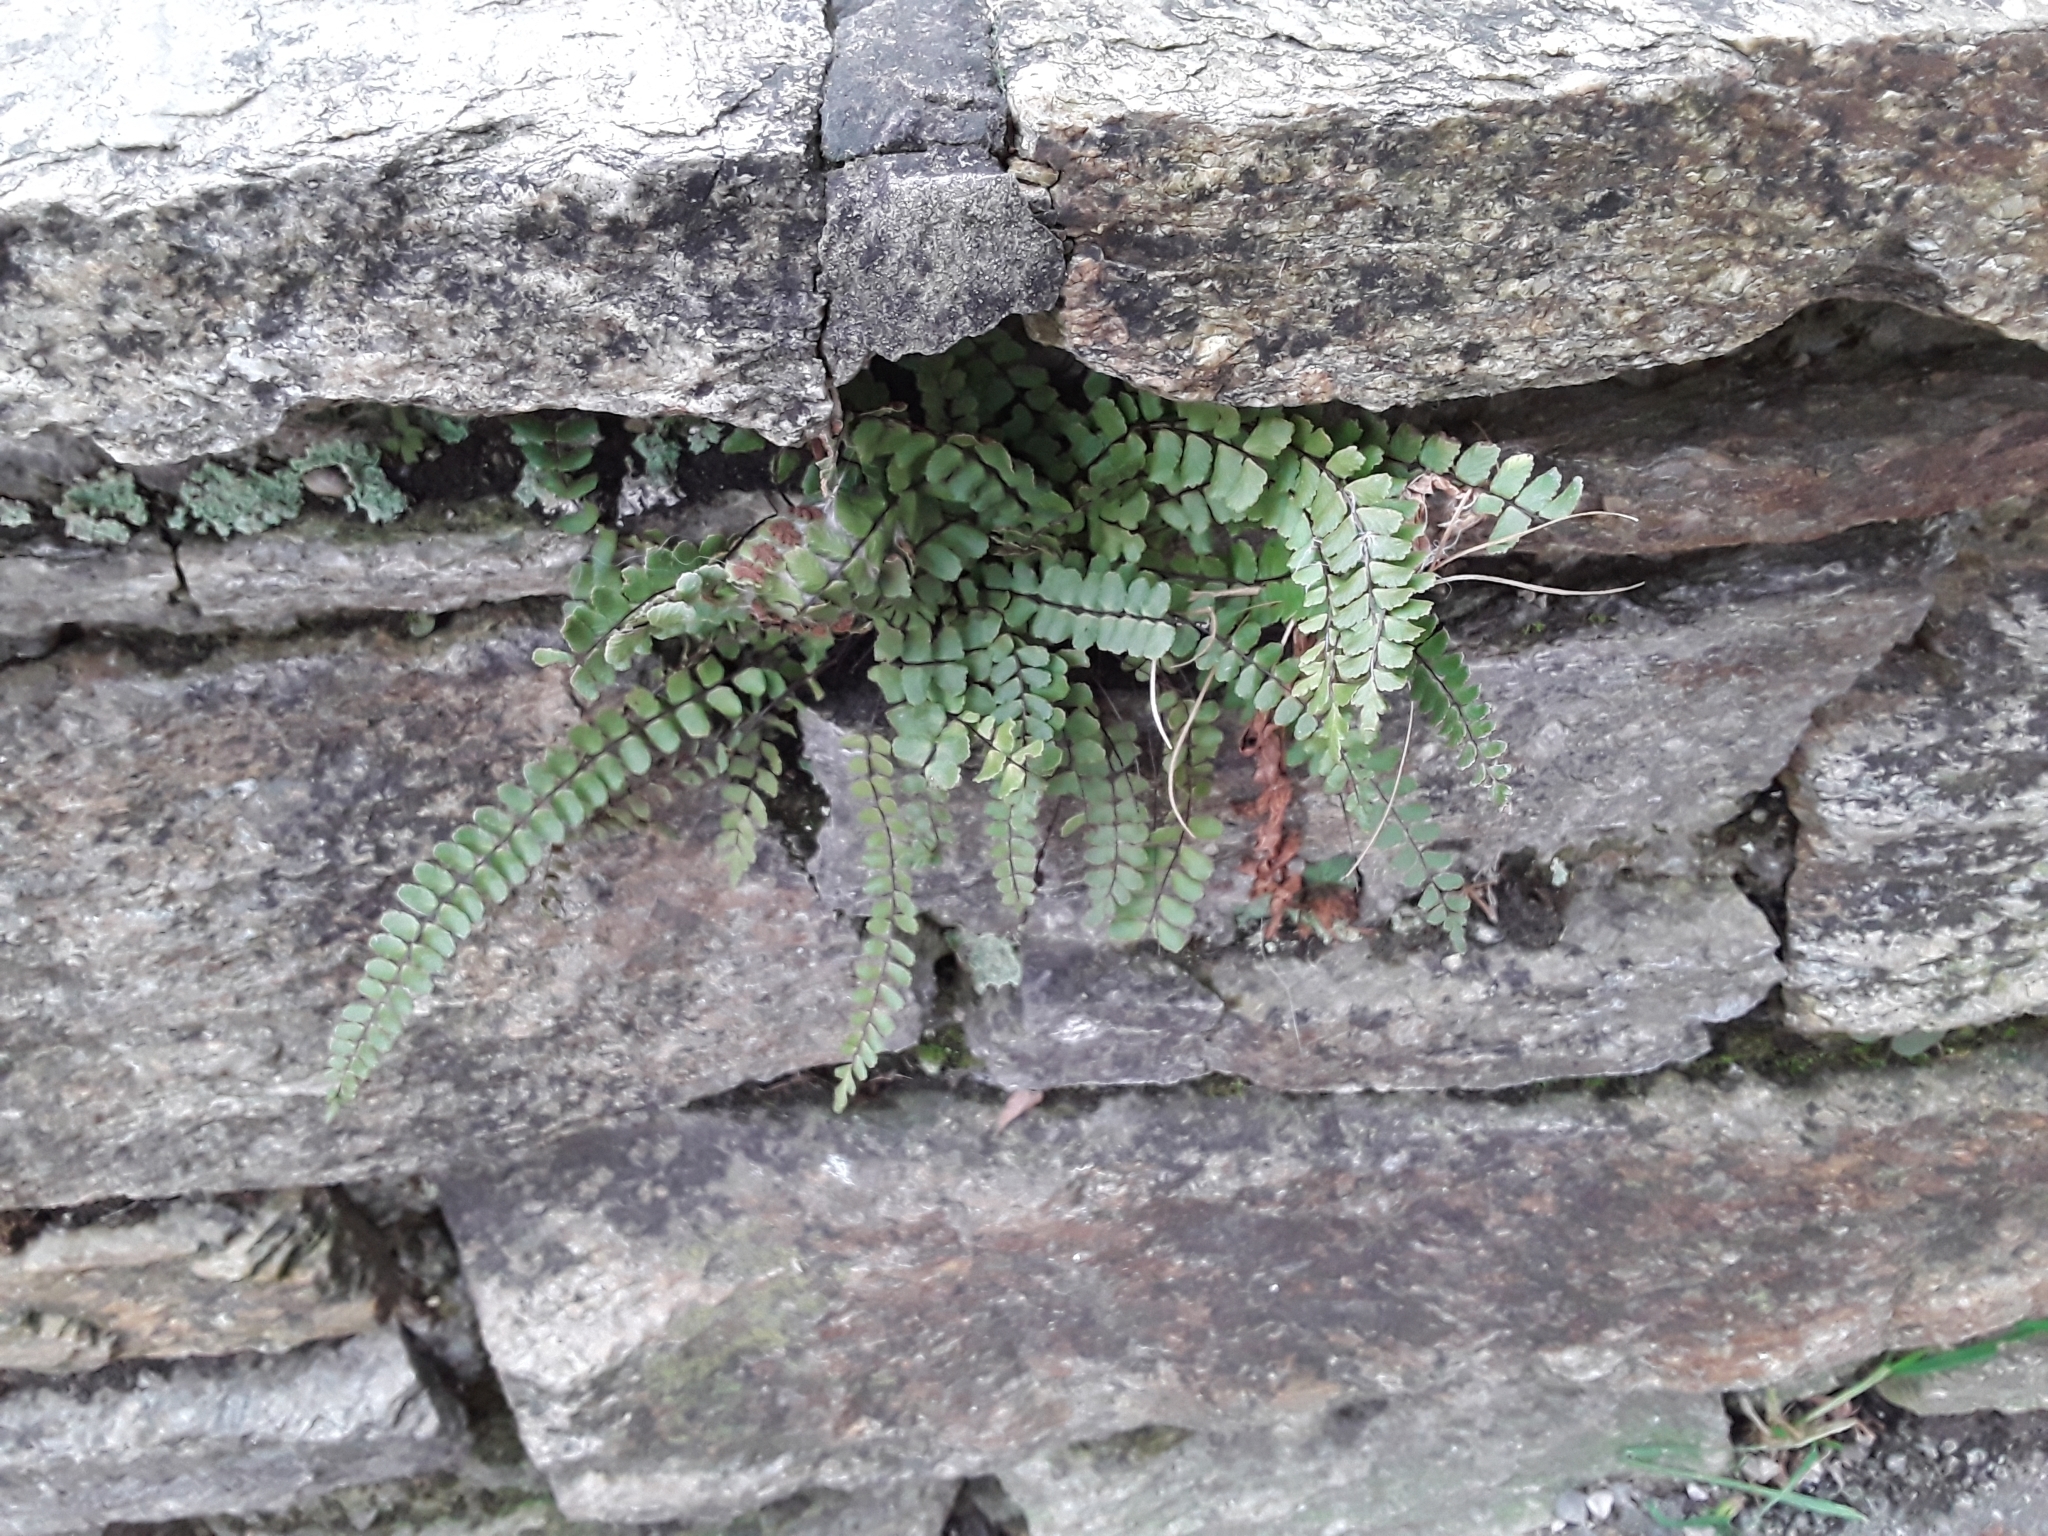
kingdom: Plantae
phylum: Tracheophyta
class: Polypodiopsida
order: Polypodiales
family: Aspleniaceae
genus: Asplenium
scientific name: Asplenium trichomanes
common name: Maidenhair spleenwort
